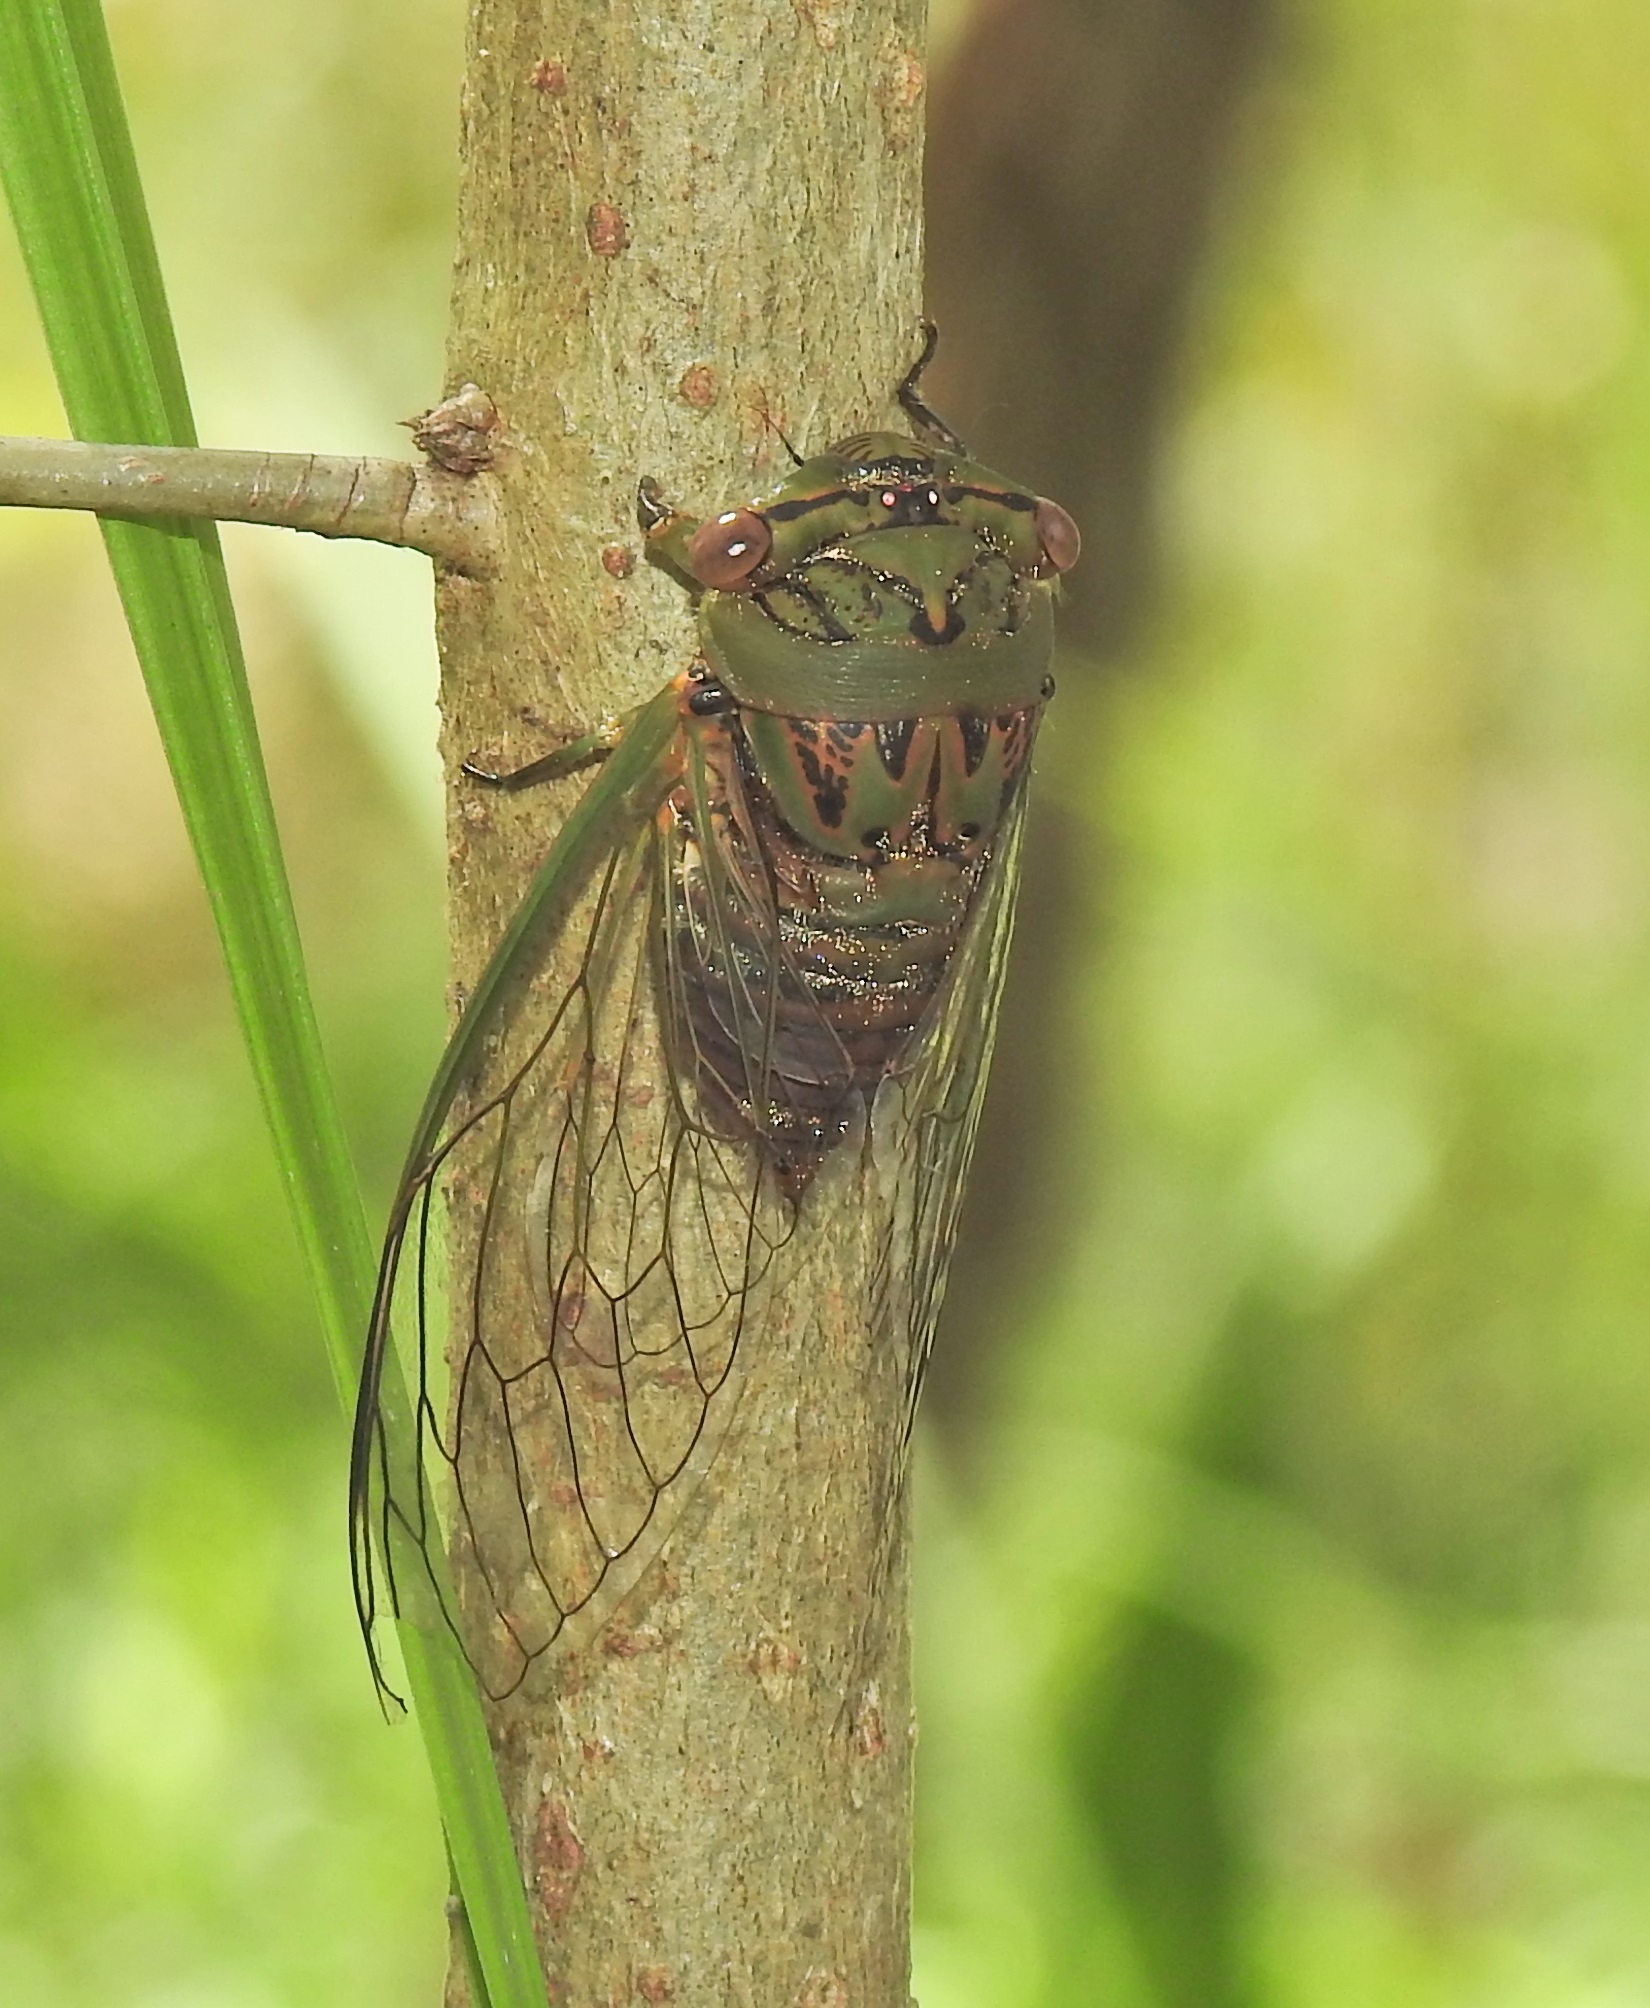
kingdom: Animalia
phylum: Arthropoda
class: Insecta
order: Hemiptera
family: Cicadidae
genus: Psaltoda
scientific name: Psaltoda brachypennis
